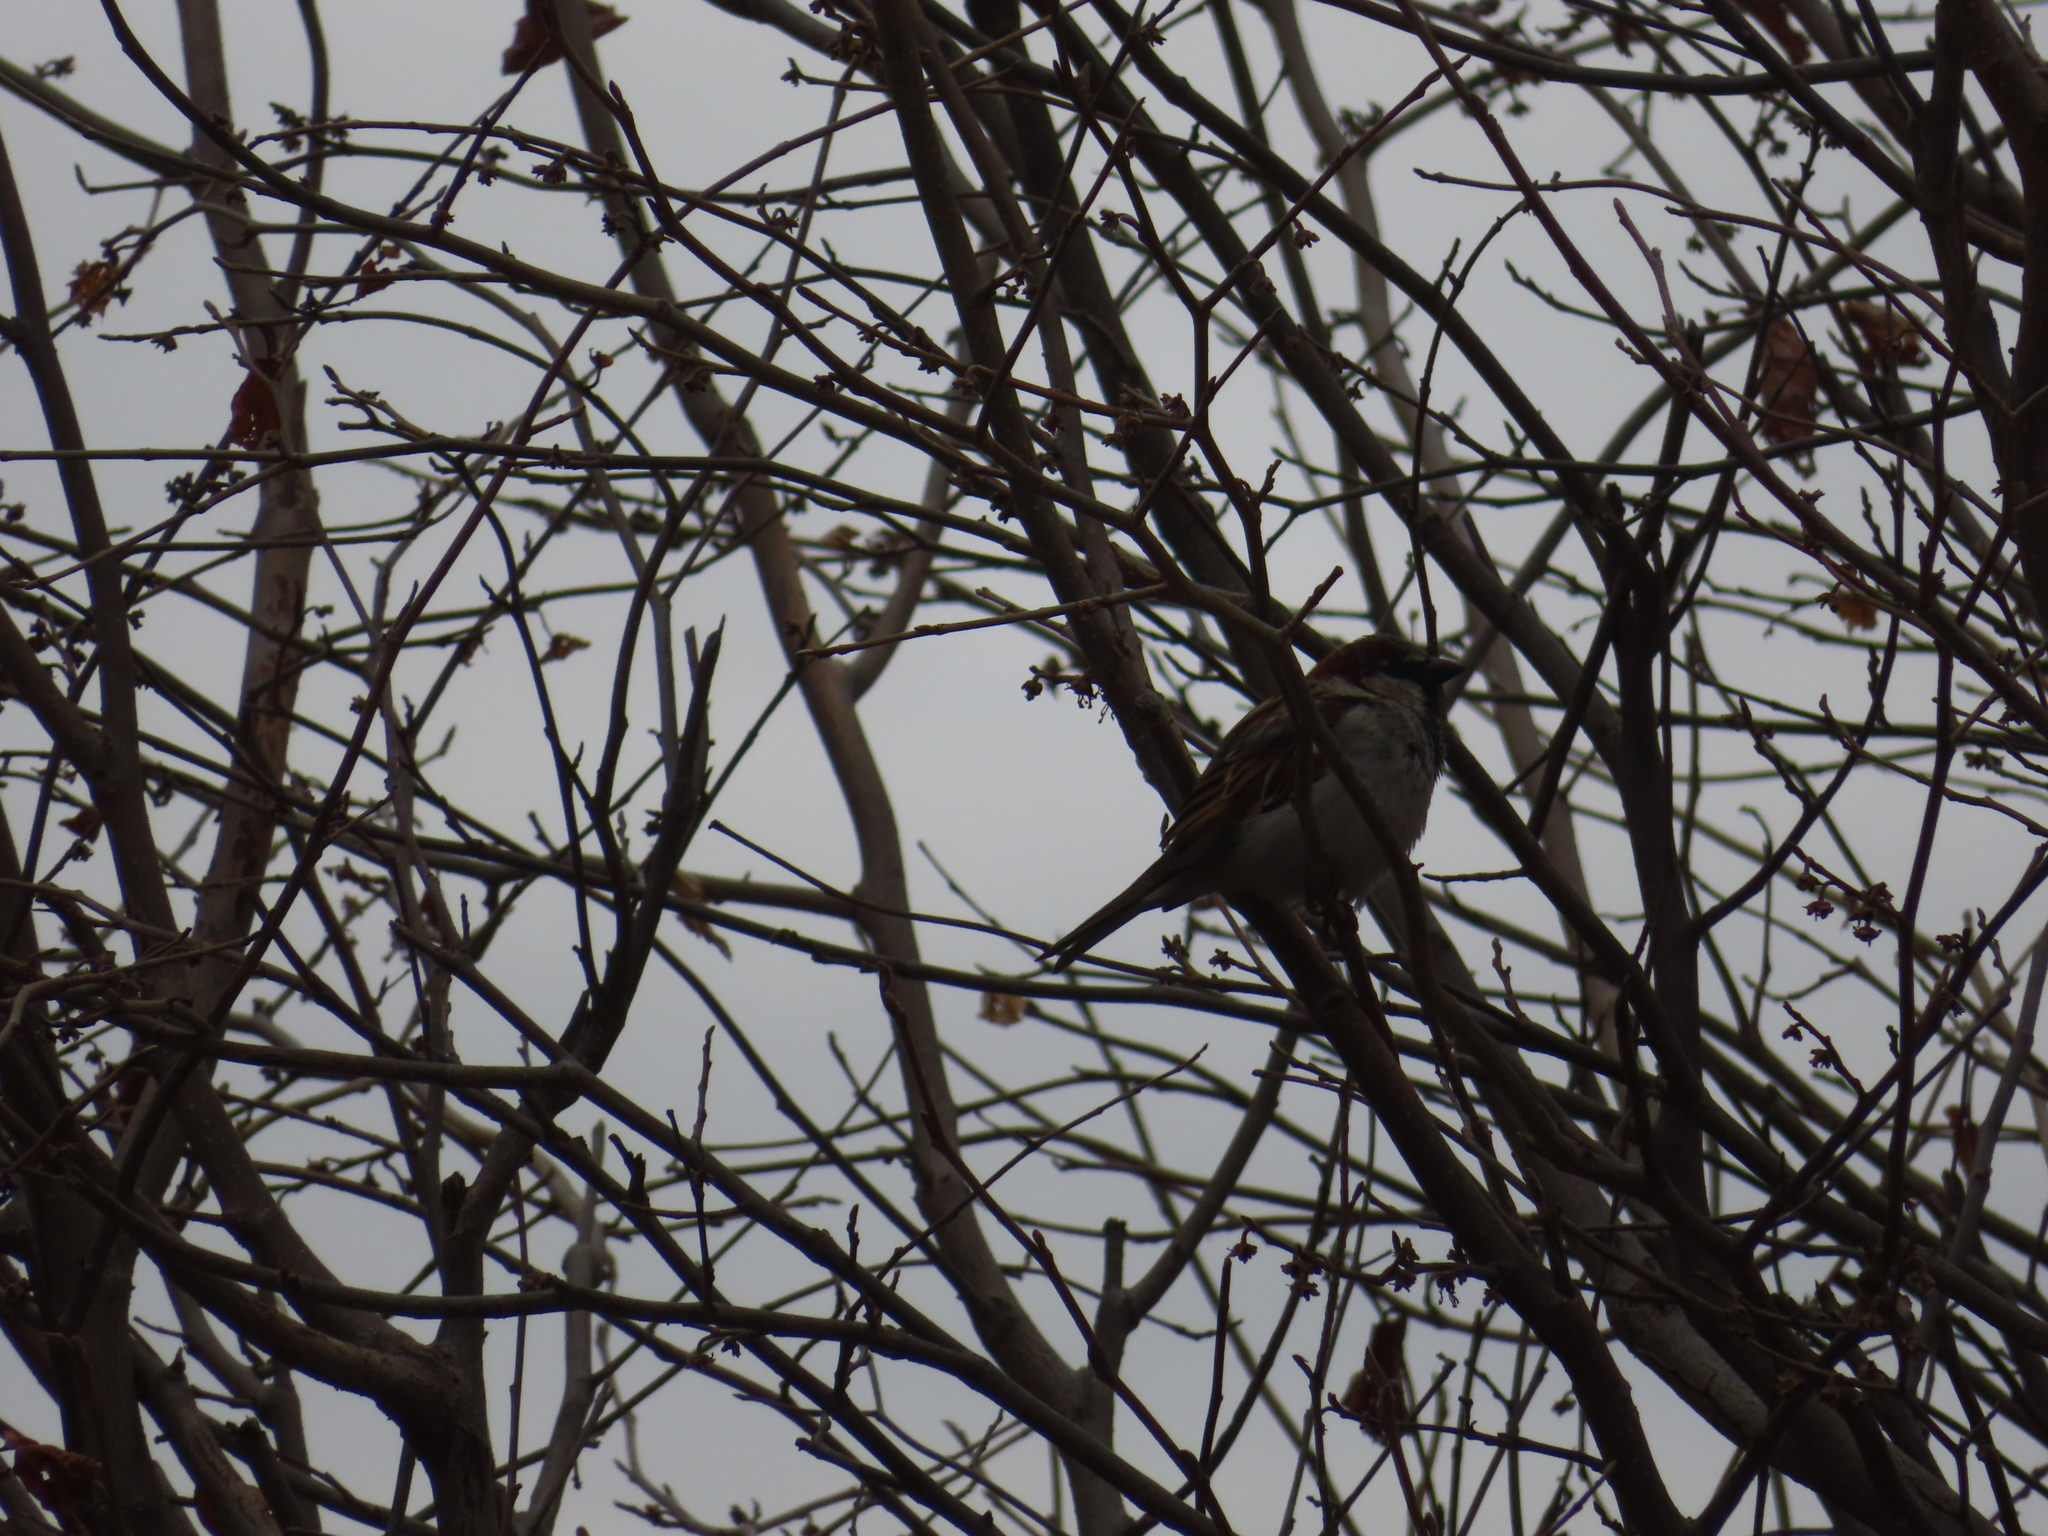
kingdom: Animalia
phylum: Chordata
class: Aves
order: Passeriformes
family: Passeridae
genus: Passer
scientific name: Passer domesticus
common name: House sparrow
